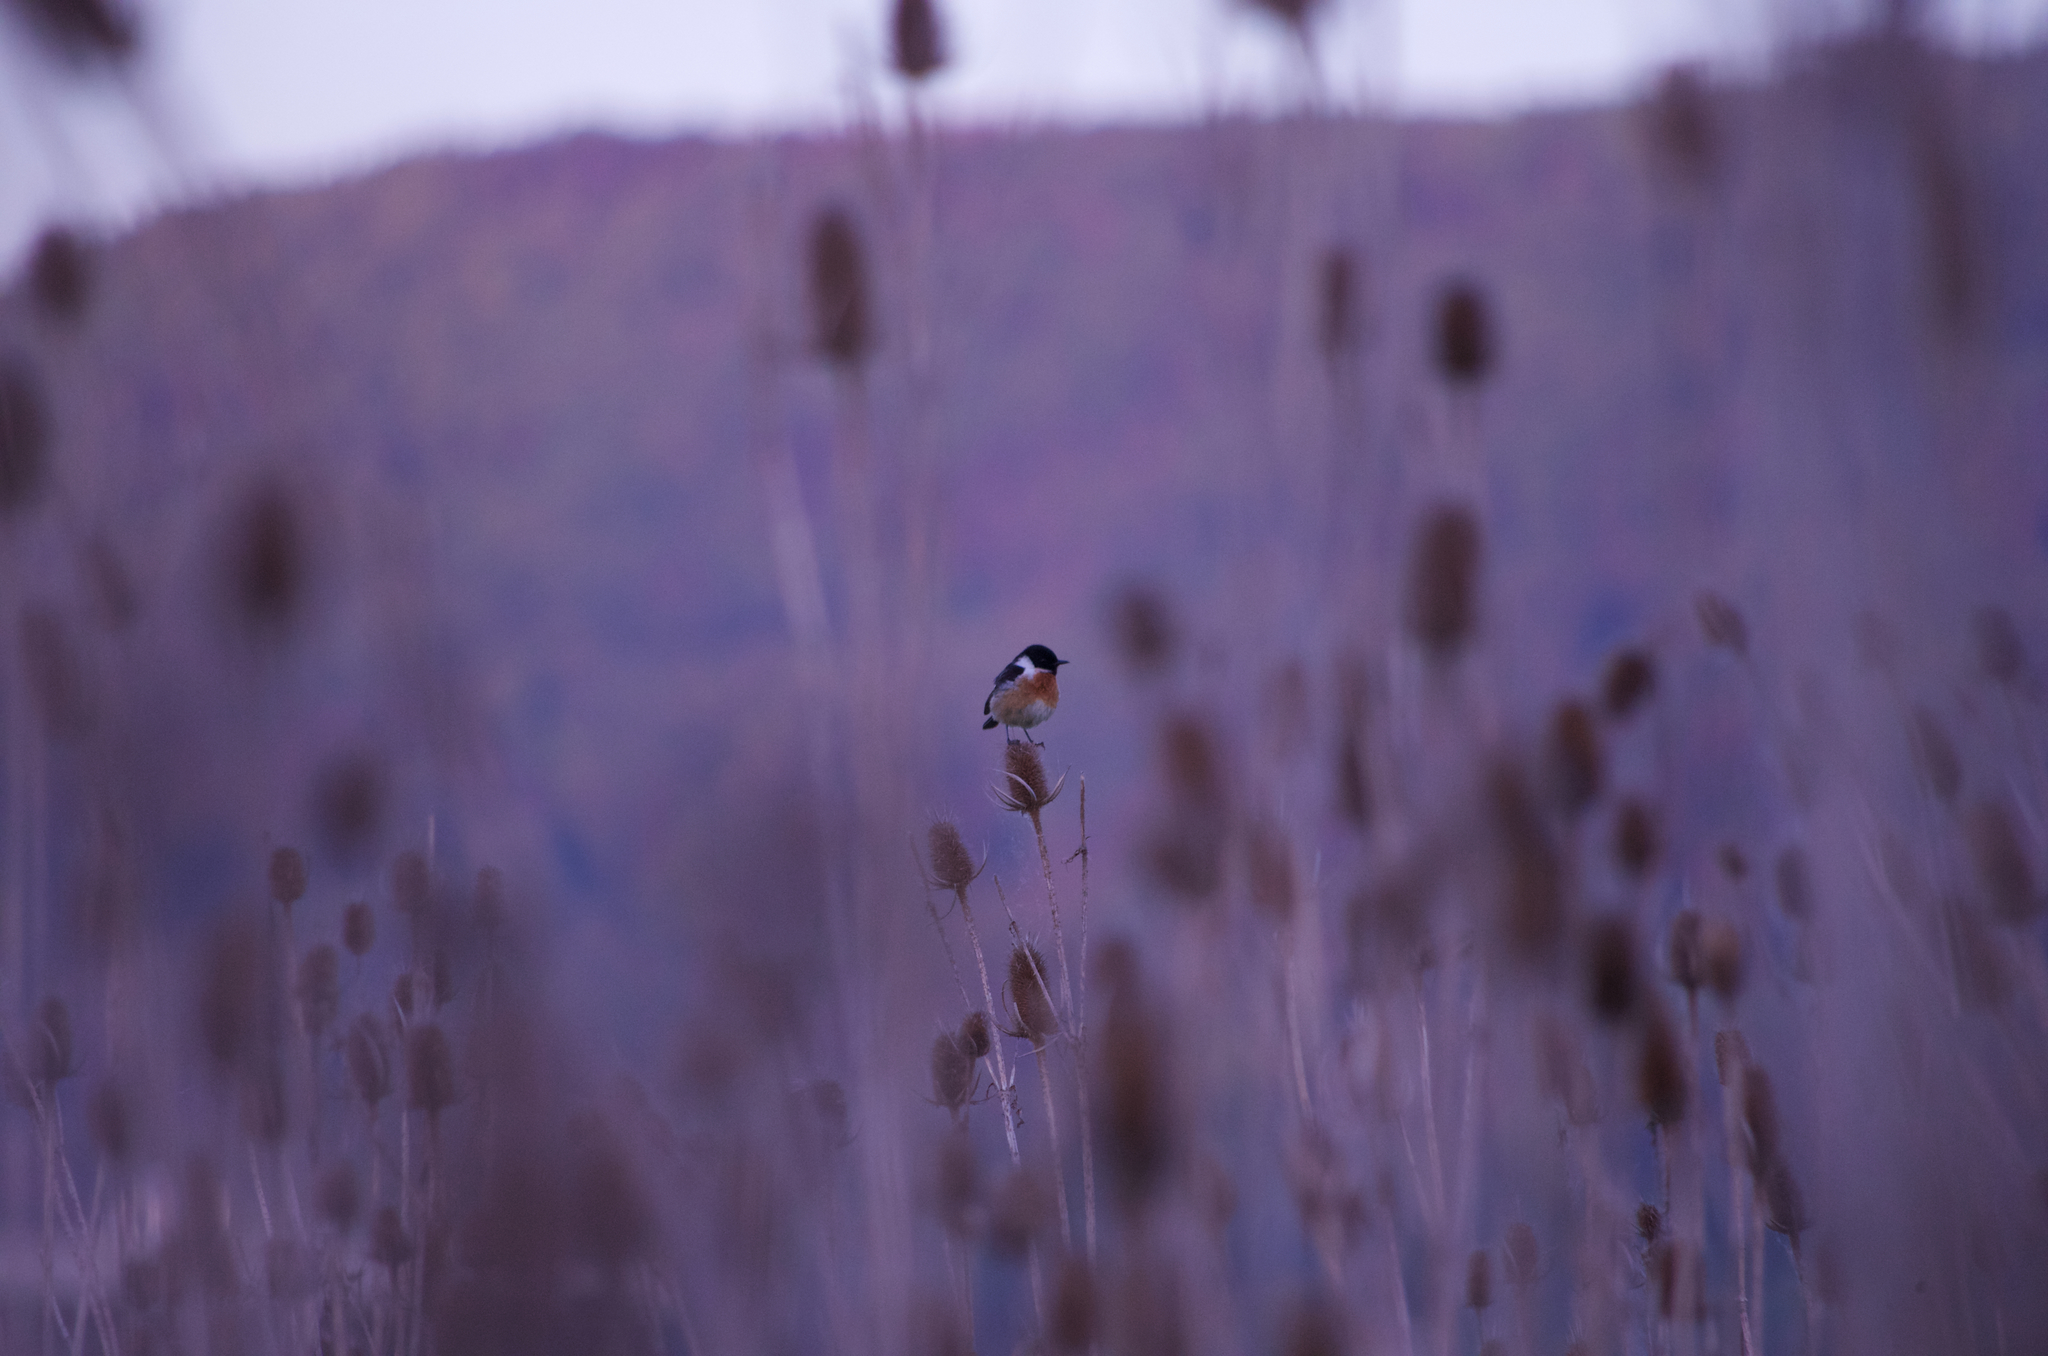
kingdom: Animalia
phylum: Chordata
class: Aves
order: Passeriformes
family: Muscicapidae
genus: Saxicola
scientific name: Saxicola rubicola
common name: European stonechat
